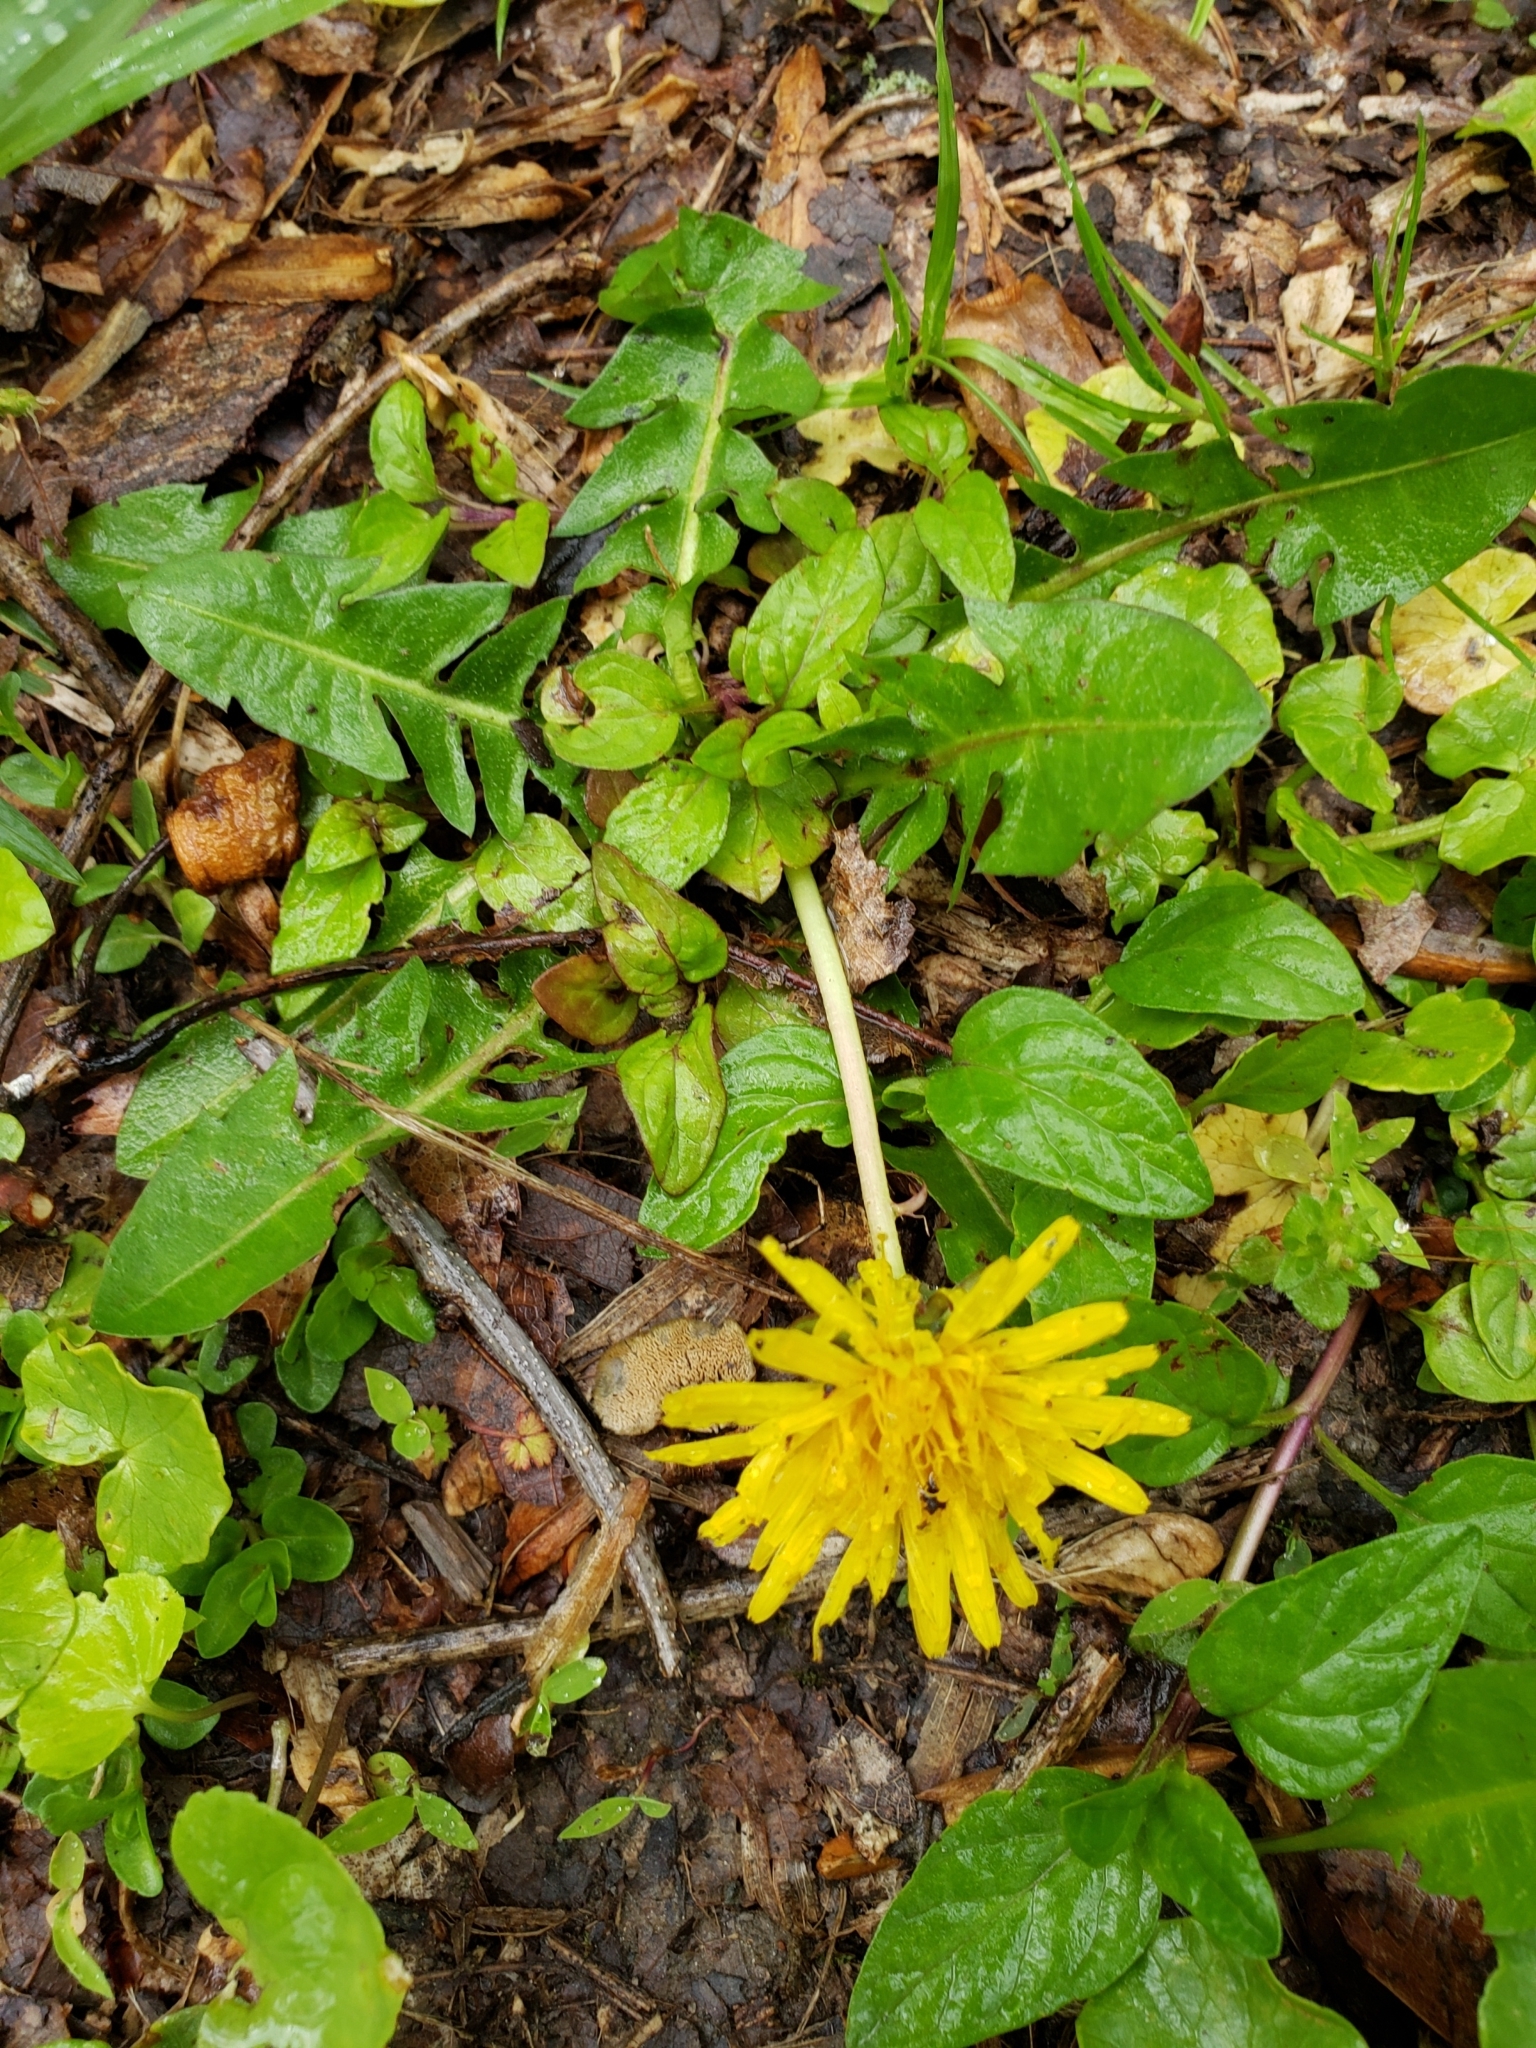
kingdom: Plantae
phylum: Tracheophyta
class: Magnoliopsida
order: Asterales
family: Asteraceae
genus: Taraxacum
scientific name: Taraxacum officinale
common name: Common dandelion
